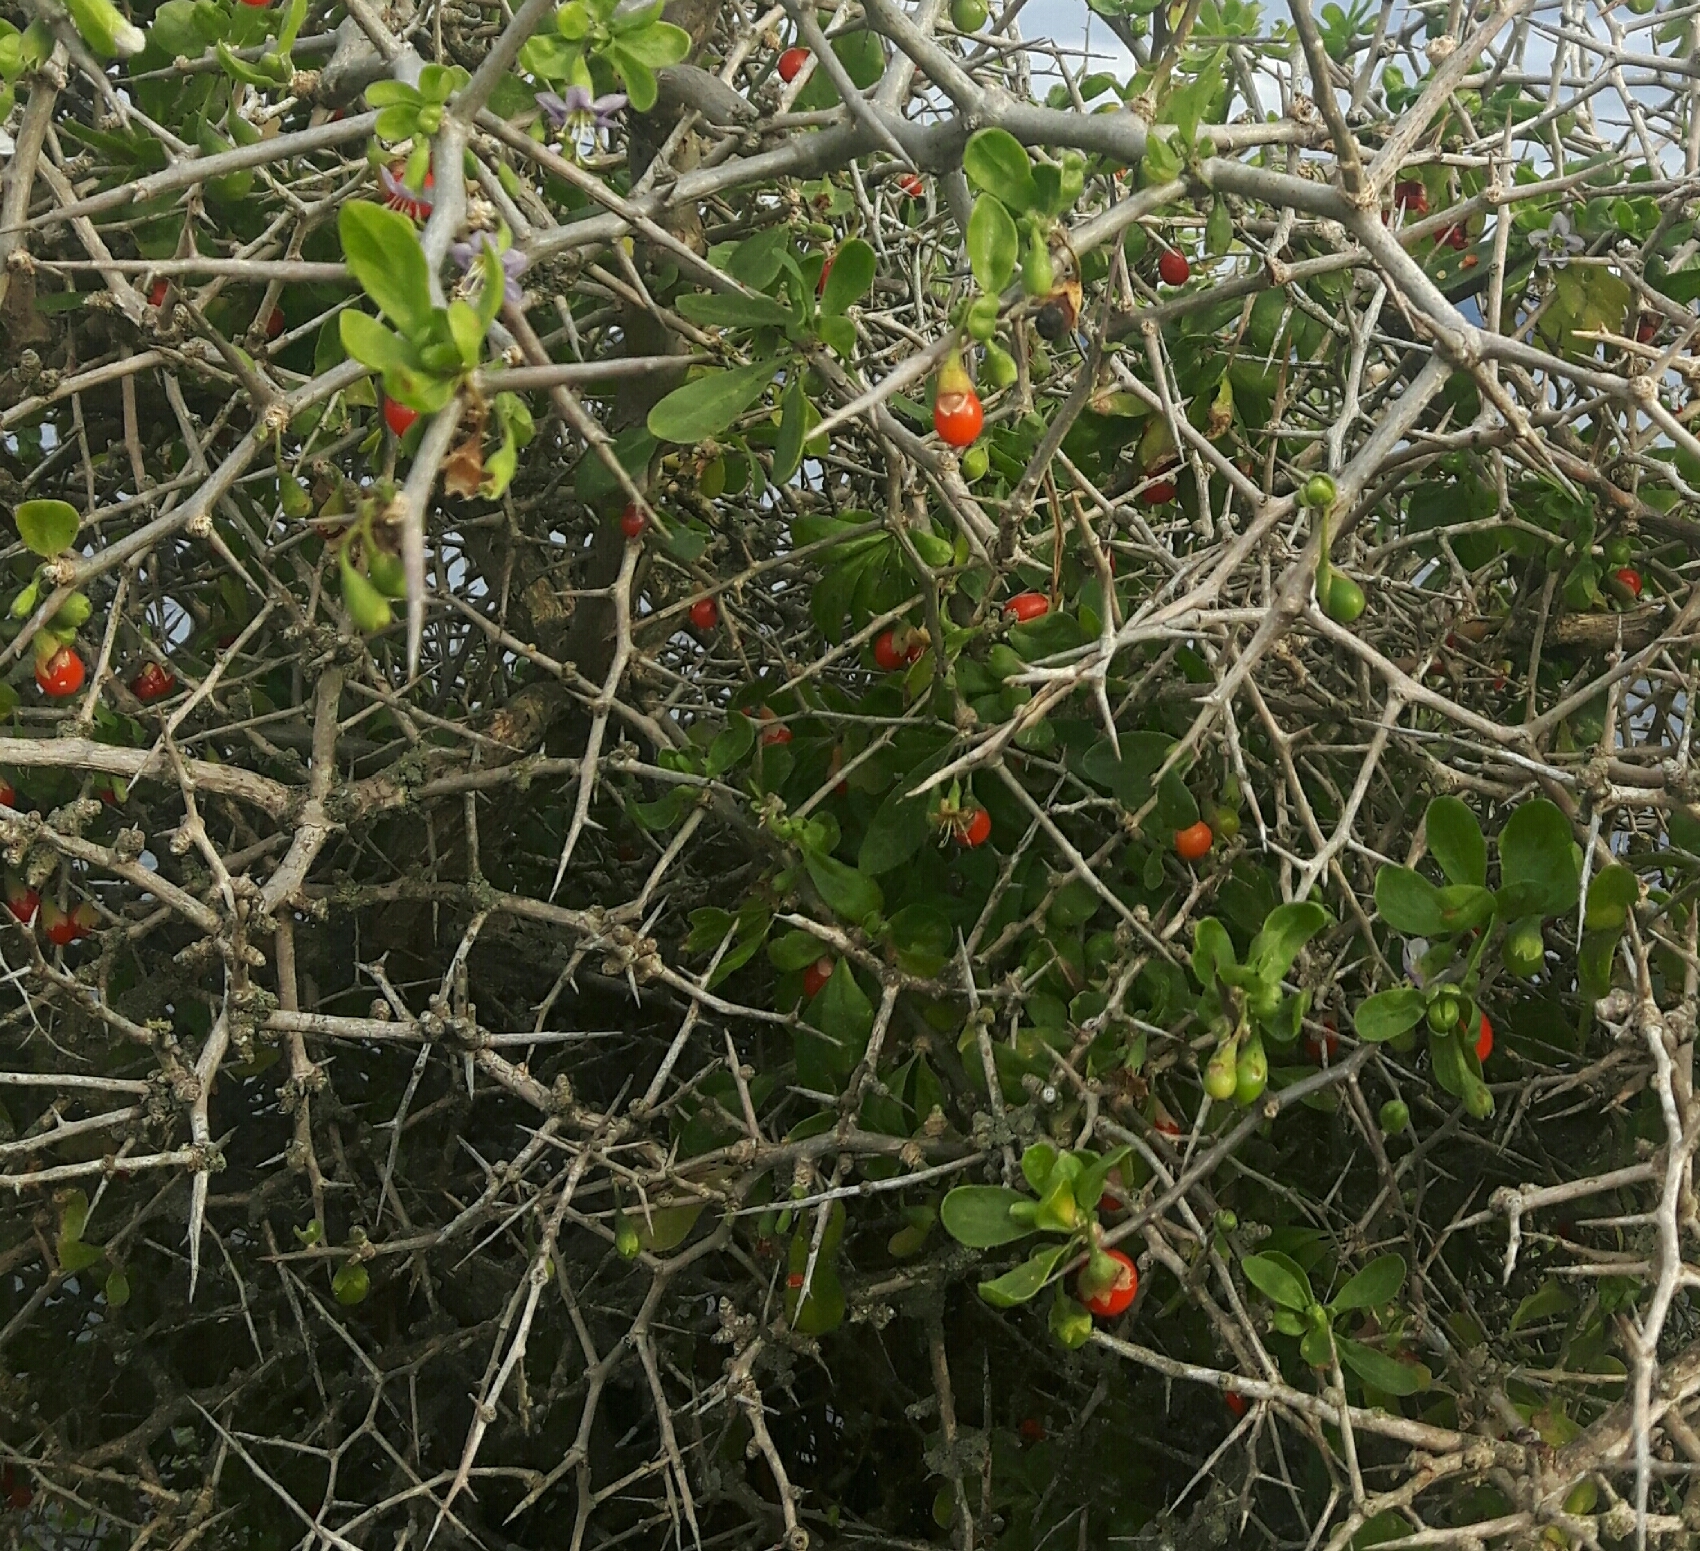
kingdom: Plantae
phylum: Tracheophyta
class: Magnoliopsida
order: Solanales
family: Solanaceae
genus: Lycium
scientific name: Lycium ferocissimum
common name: African boxthorn
